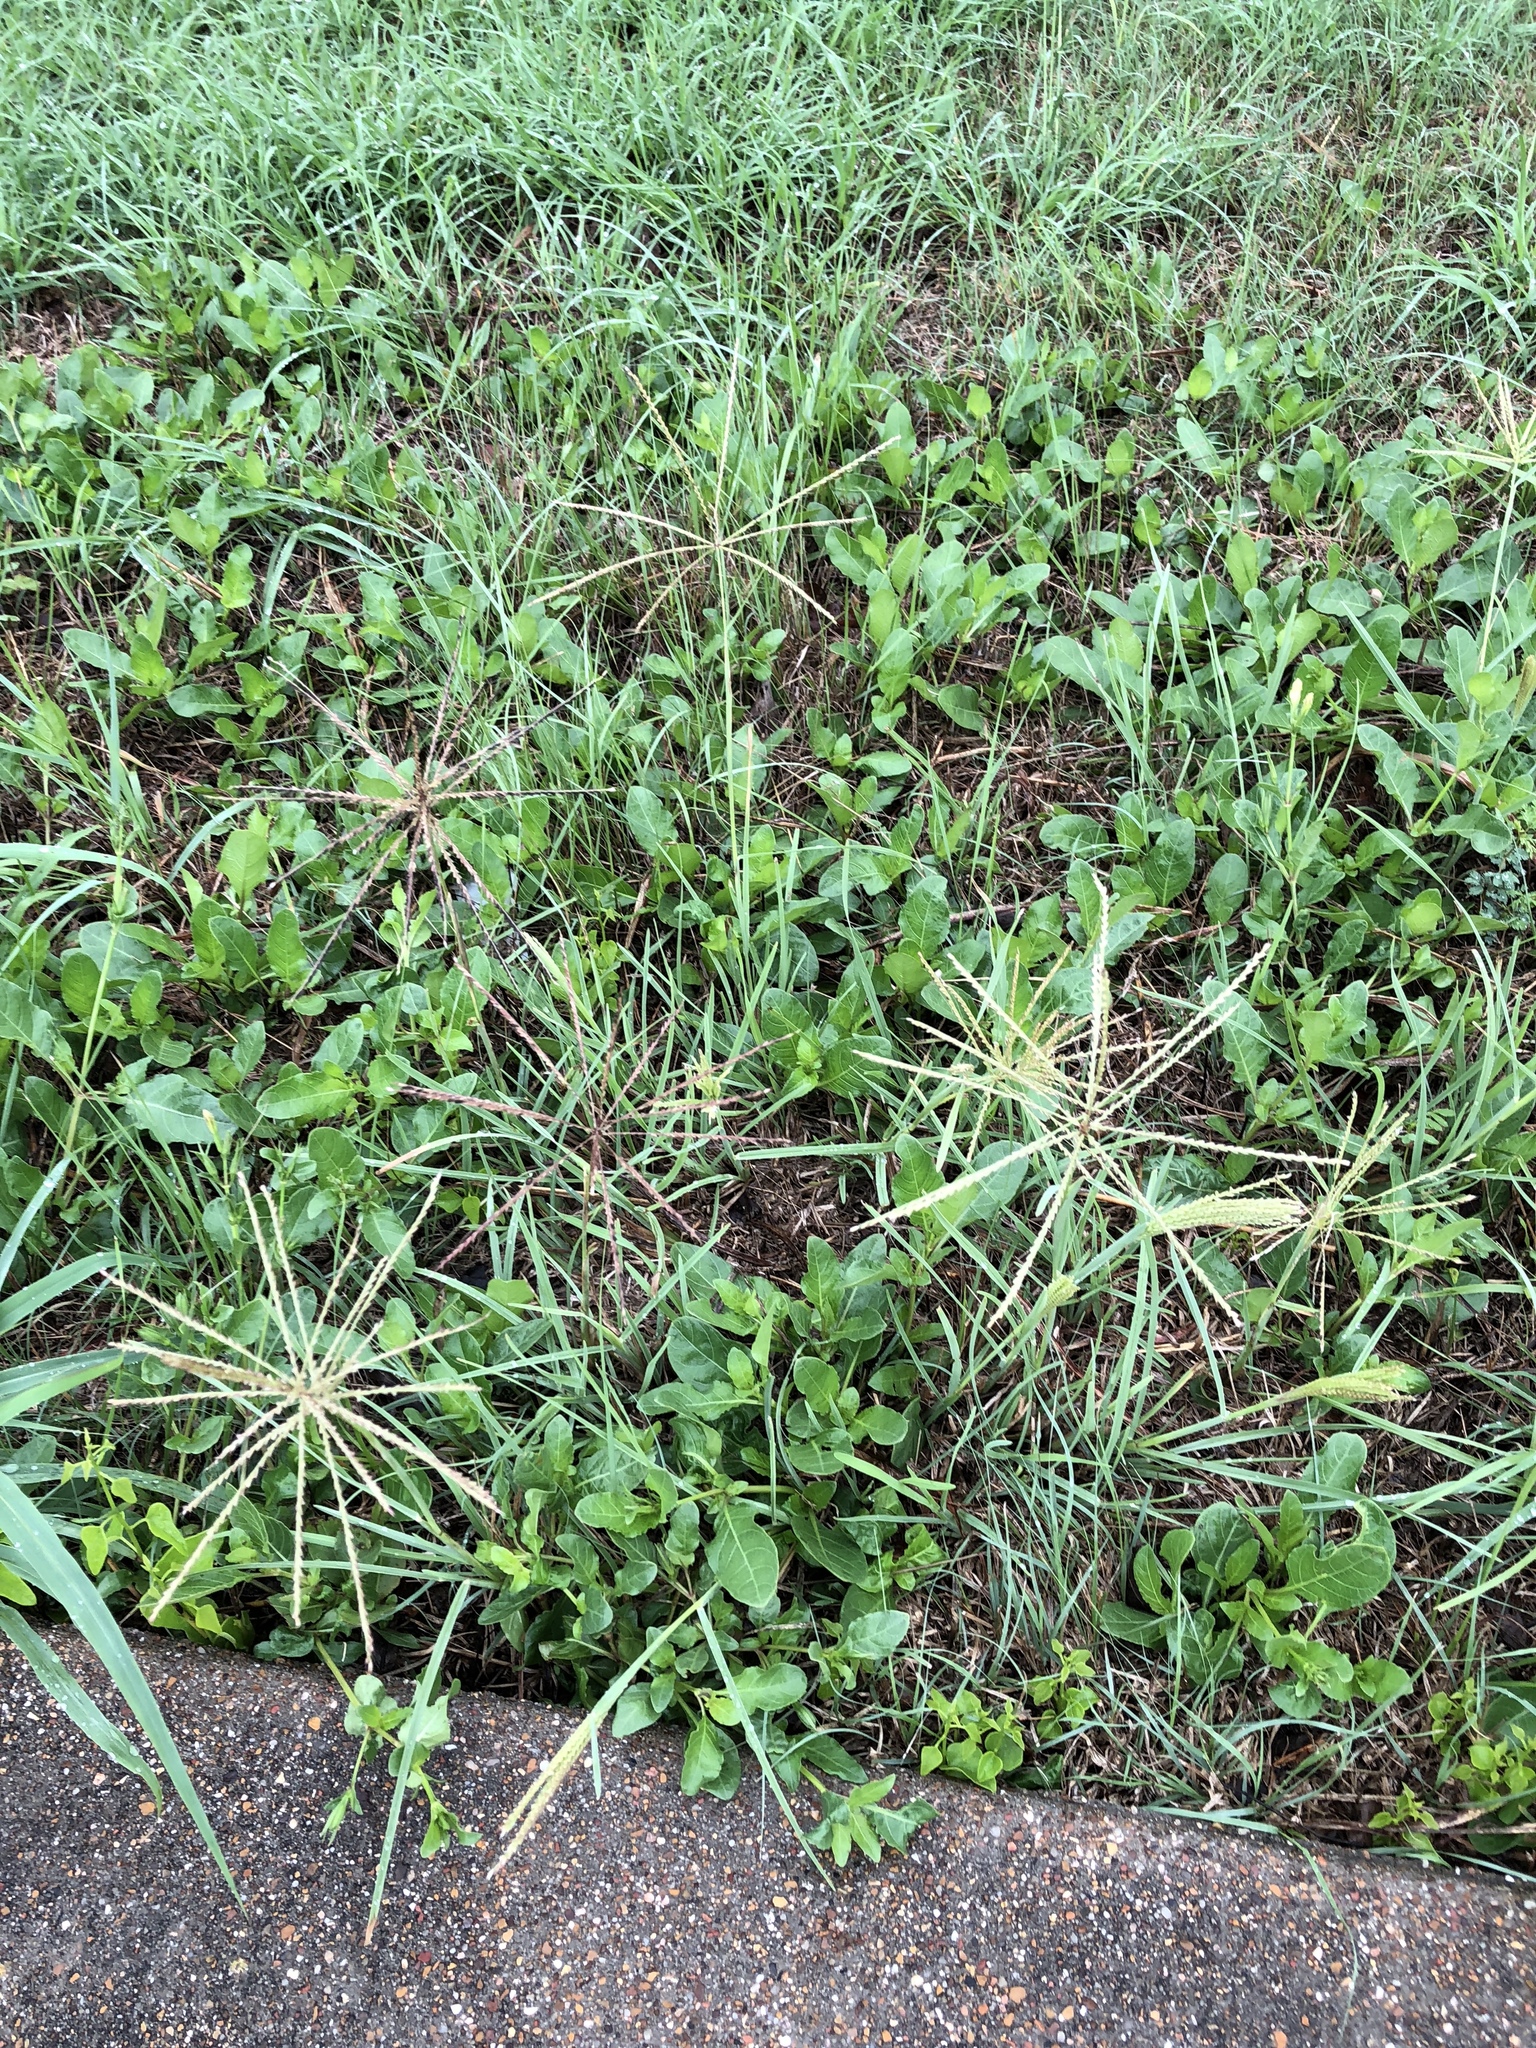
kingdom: Plantae
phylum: Tracheophyta
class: Liliopsida
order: Poales
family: Poaceae
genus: Chloris
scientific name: Chloris verticillata
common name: Tumble windmill grass
